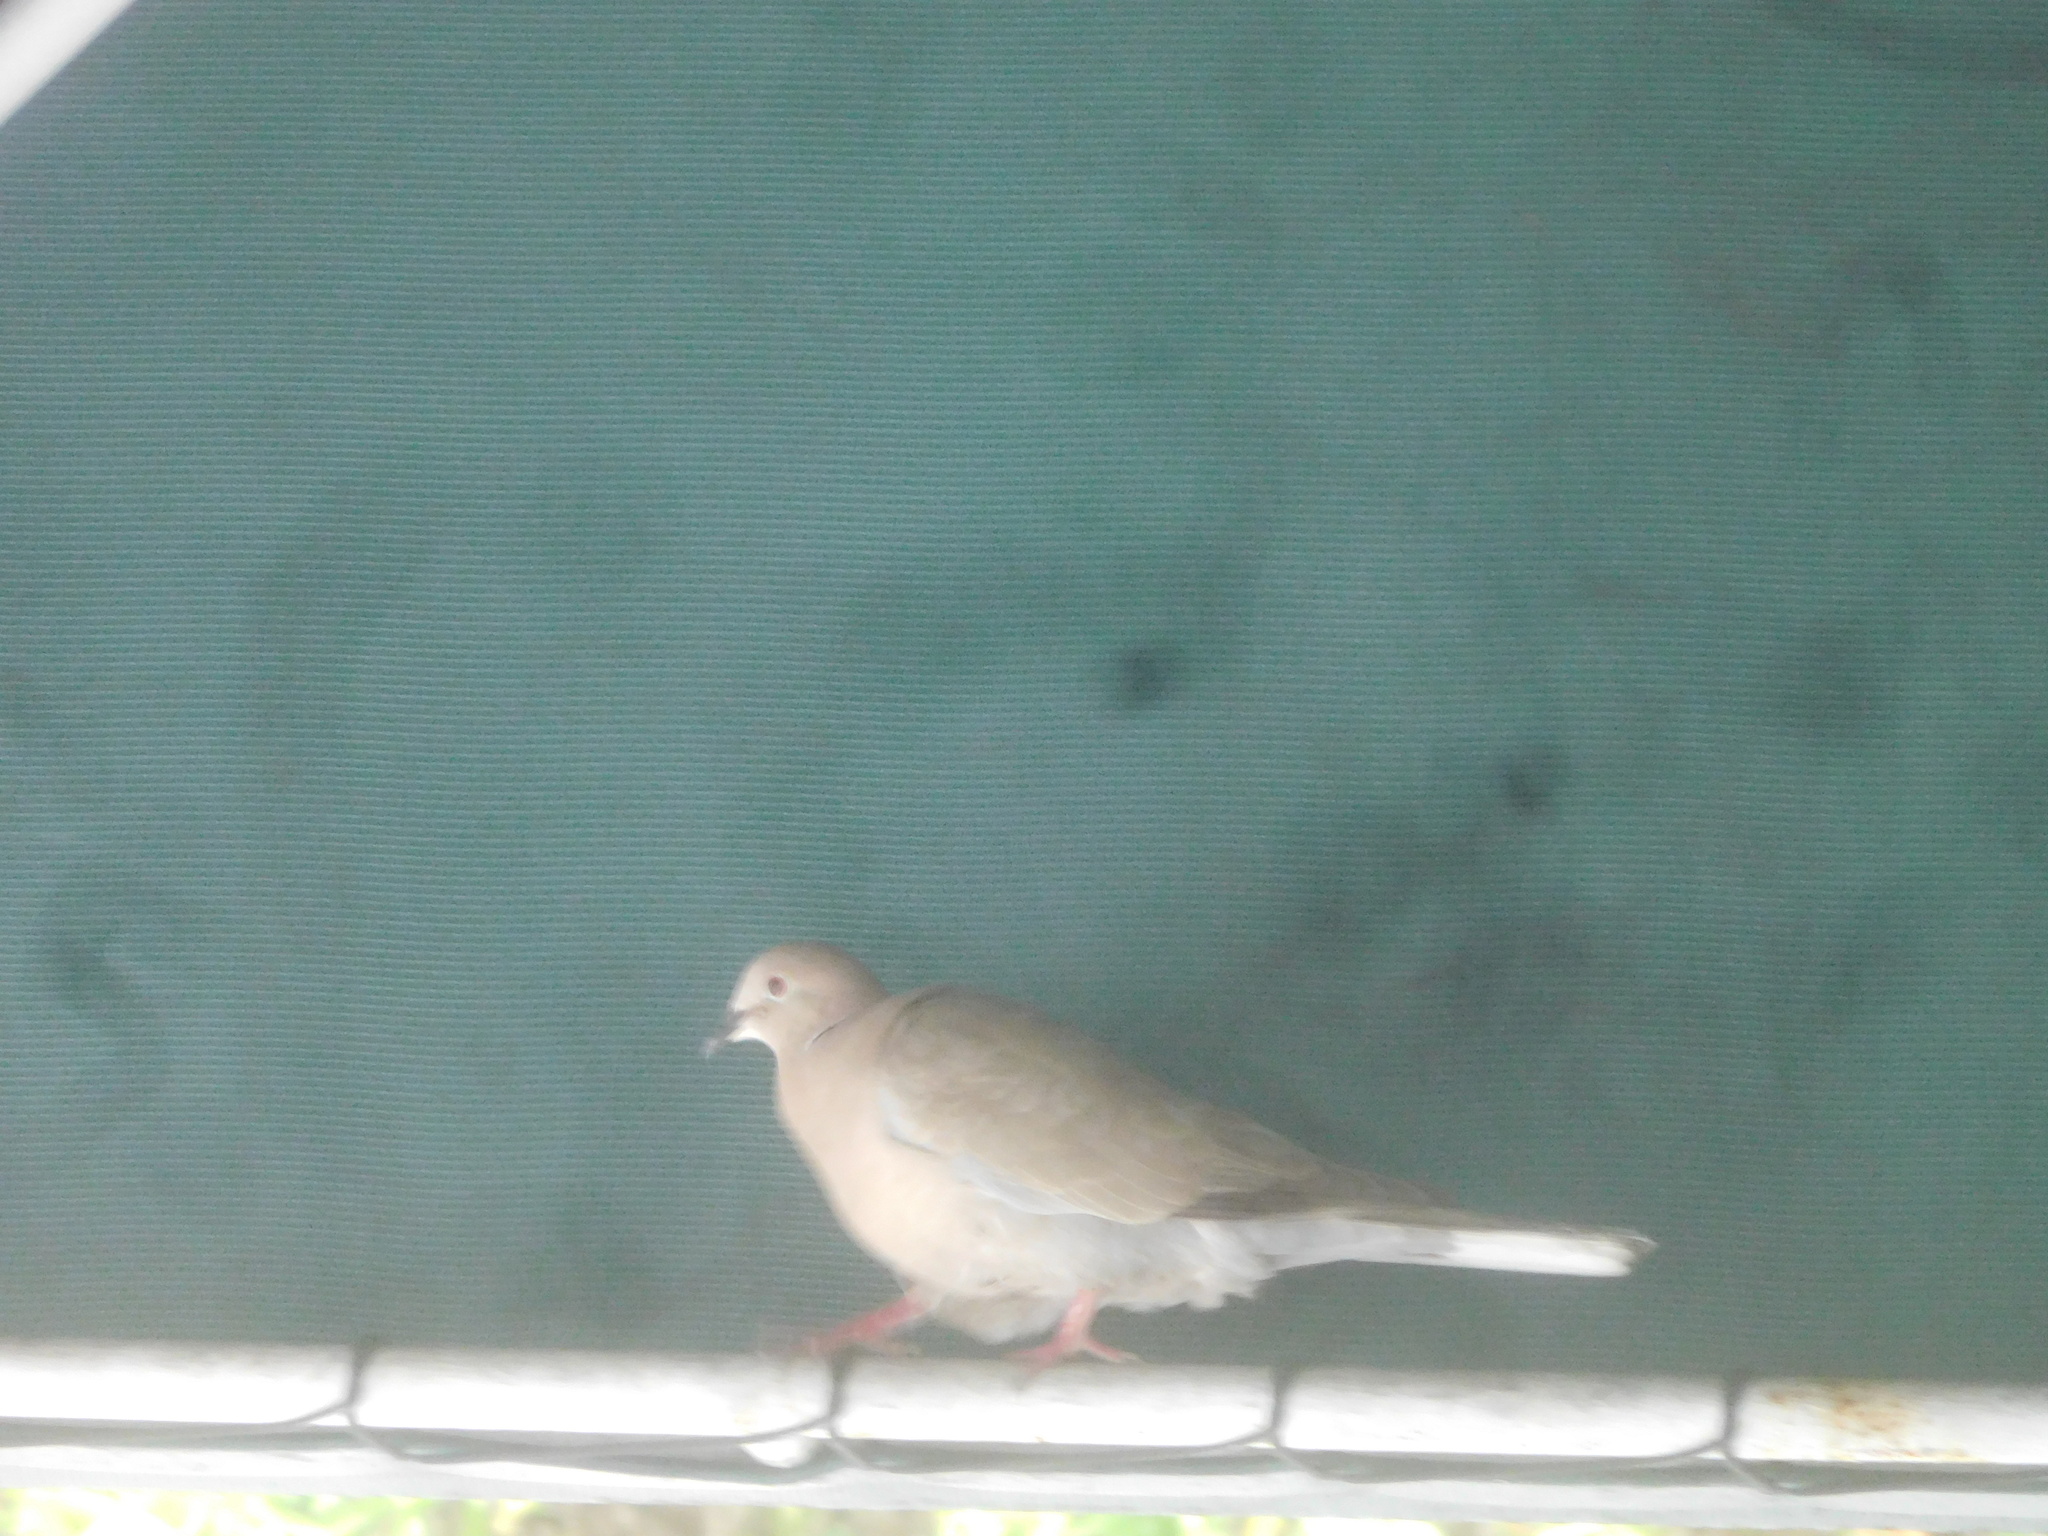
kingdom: Animalia
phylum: Chordata
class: Aves
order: Columbiformes
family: Columbidae
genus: Streptopelia
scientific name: Streptopelia decaocto
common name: Eurasian collared dove
